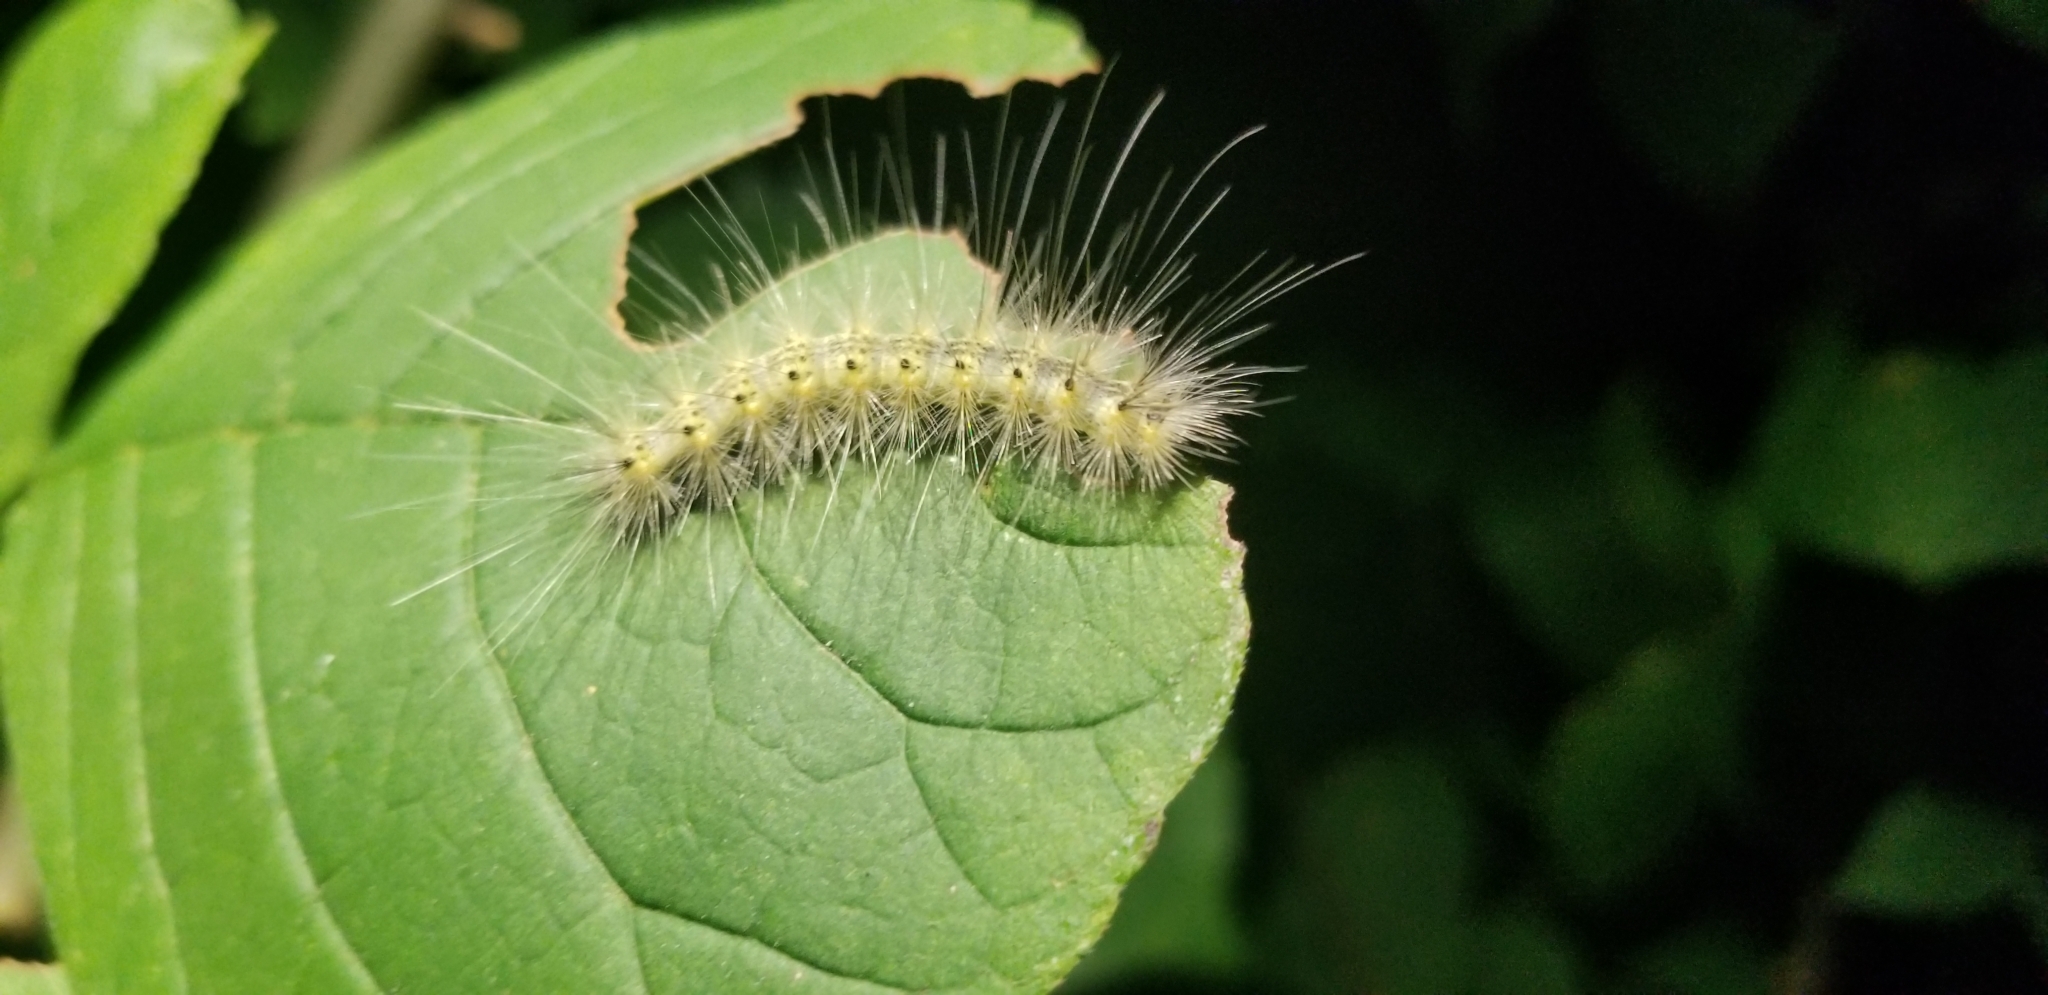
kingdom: Animalia
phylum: Arthropoda
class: Insecta
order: Lepidoptera
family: Erebidae
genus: Hyphantria
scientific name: Hyphantria cunea
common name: American white moth
